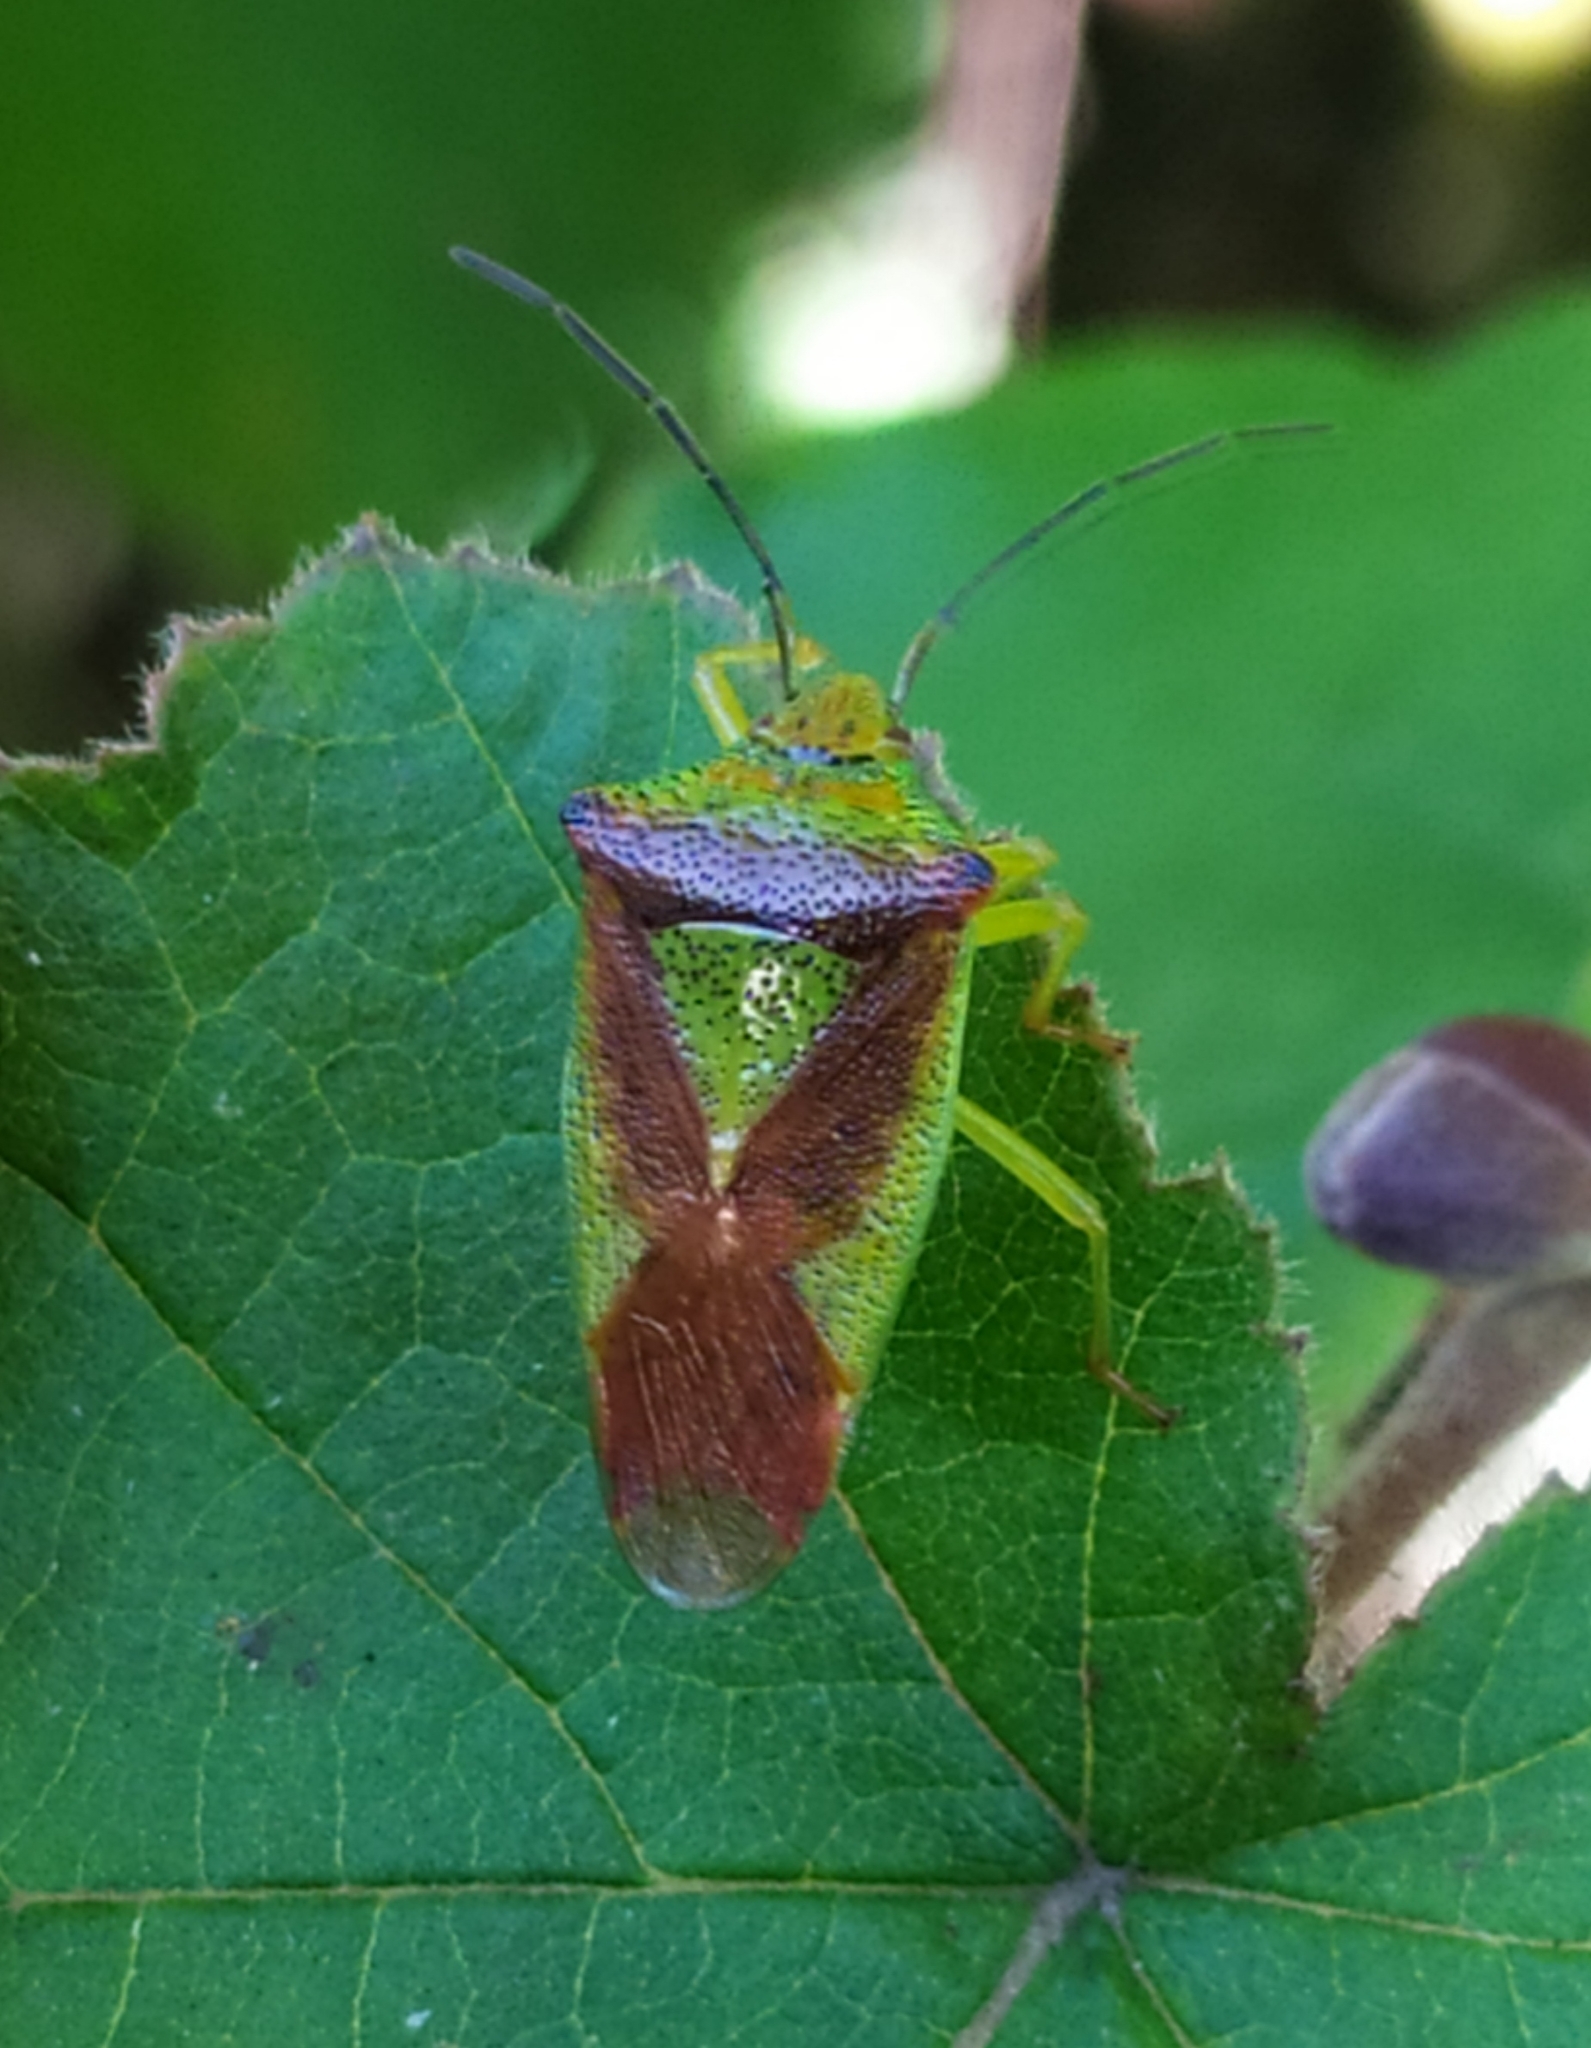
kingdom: Animalia
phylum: Arthropoda
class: Insecta
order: Hemiptera
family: Acanthosomatidae
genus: Acanthosoma
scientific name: Acanthosoma haemorrhoidale
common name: Hawthorn shieldbug
